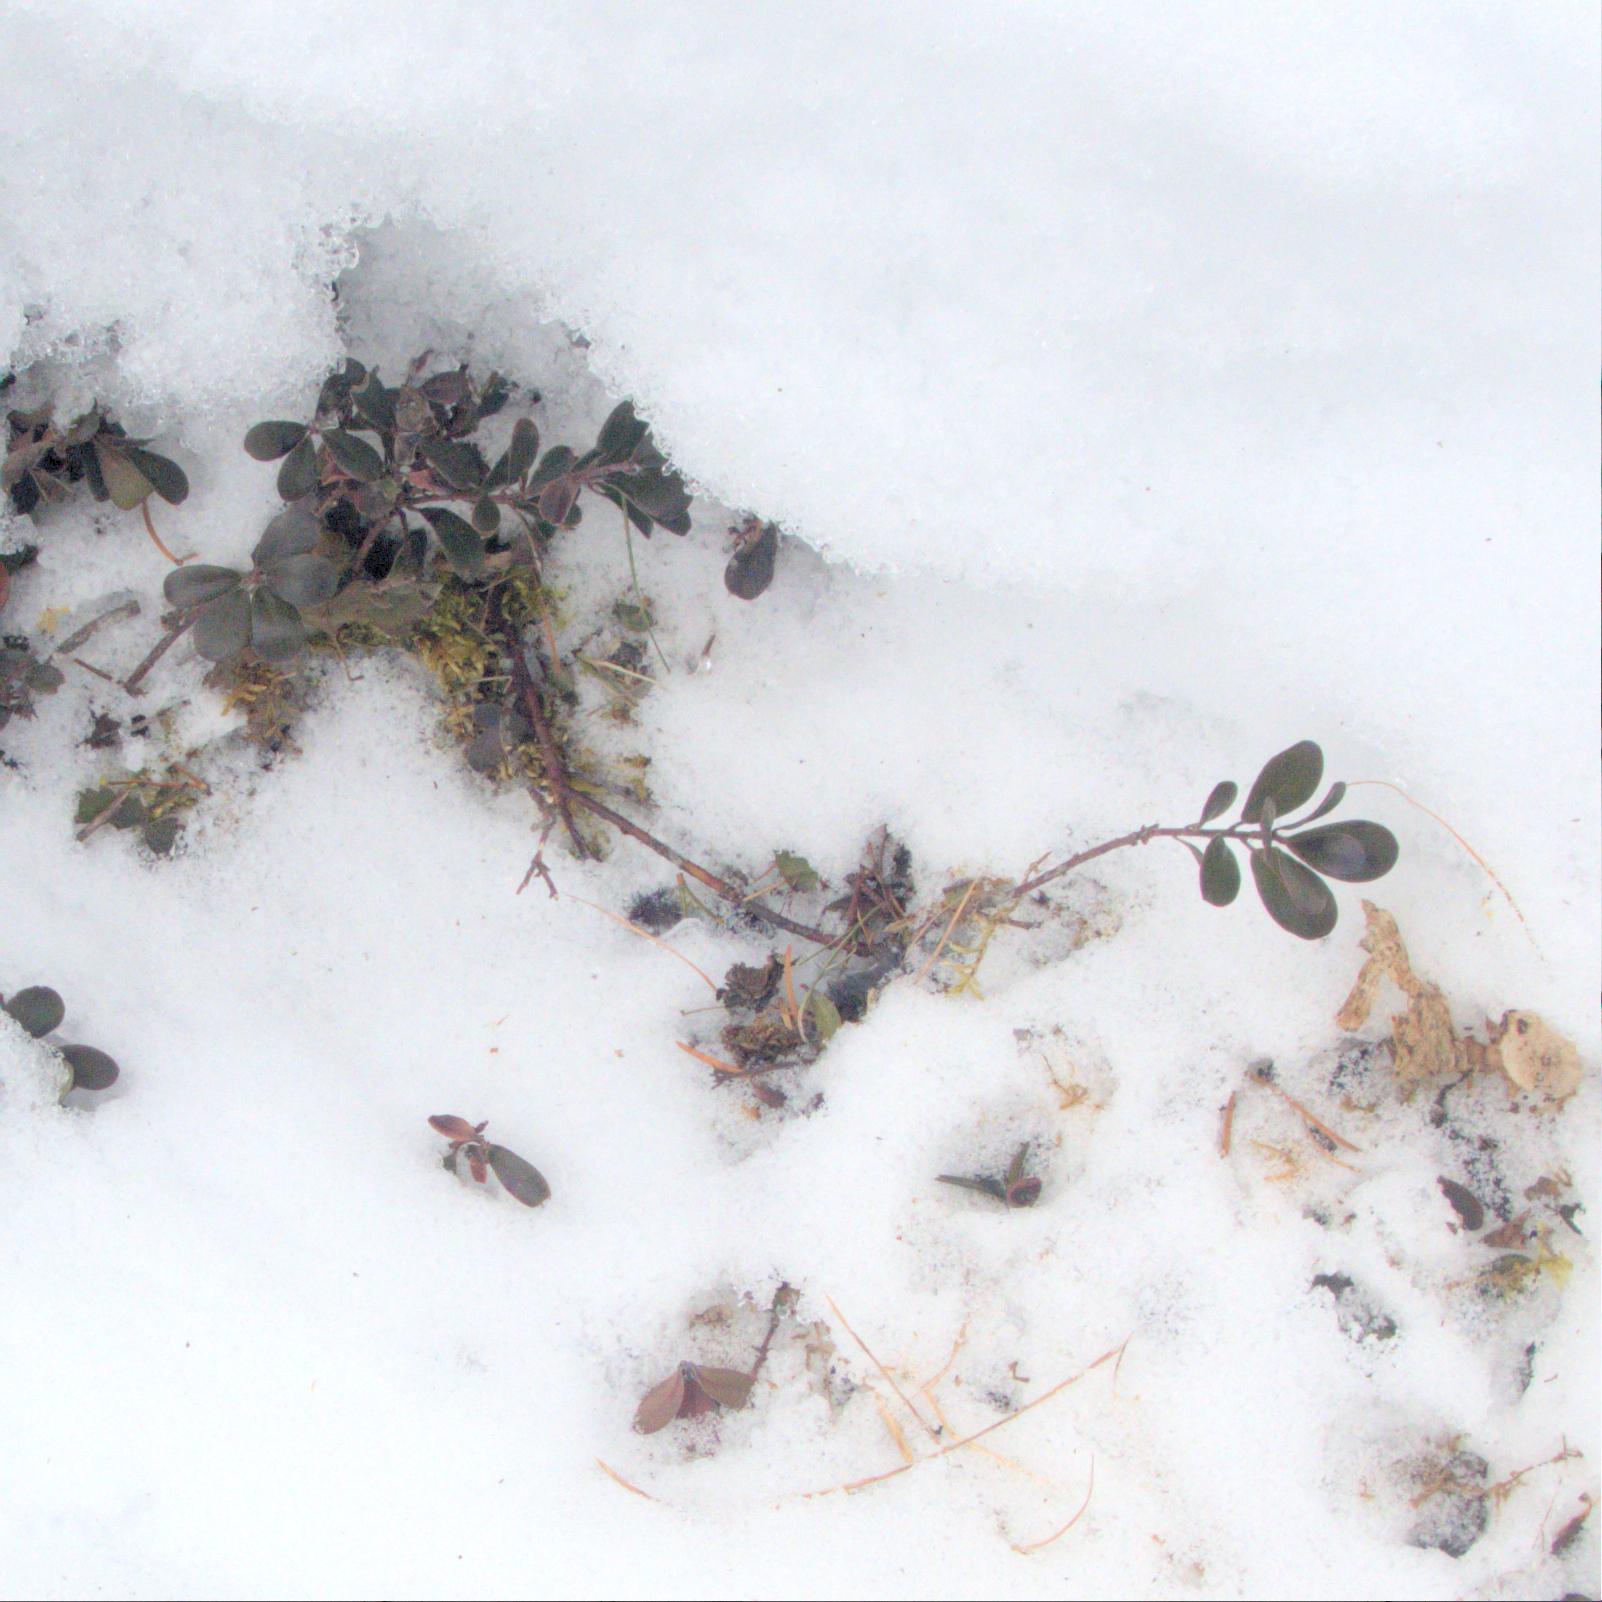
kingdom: Plantae
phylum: Tracheophyta
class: Magnoliopsida
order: Ericales
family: Ericaceae
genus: Arctostaphylos
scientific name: Arctostaphylos uva-ursi
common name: Bearberry
